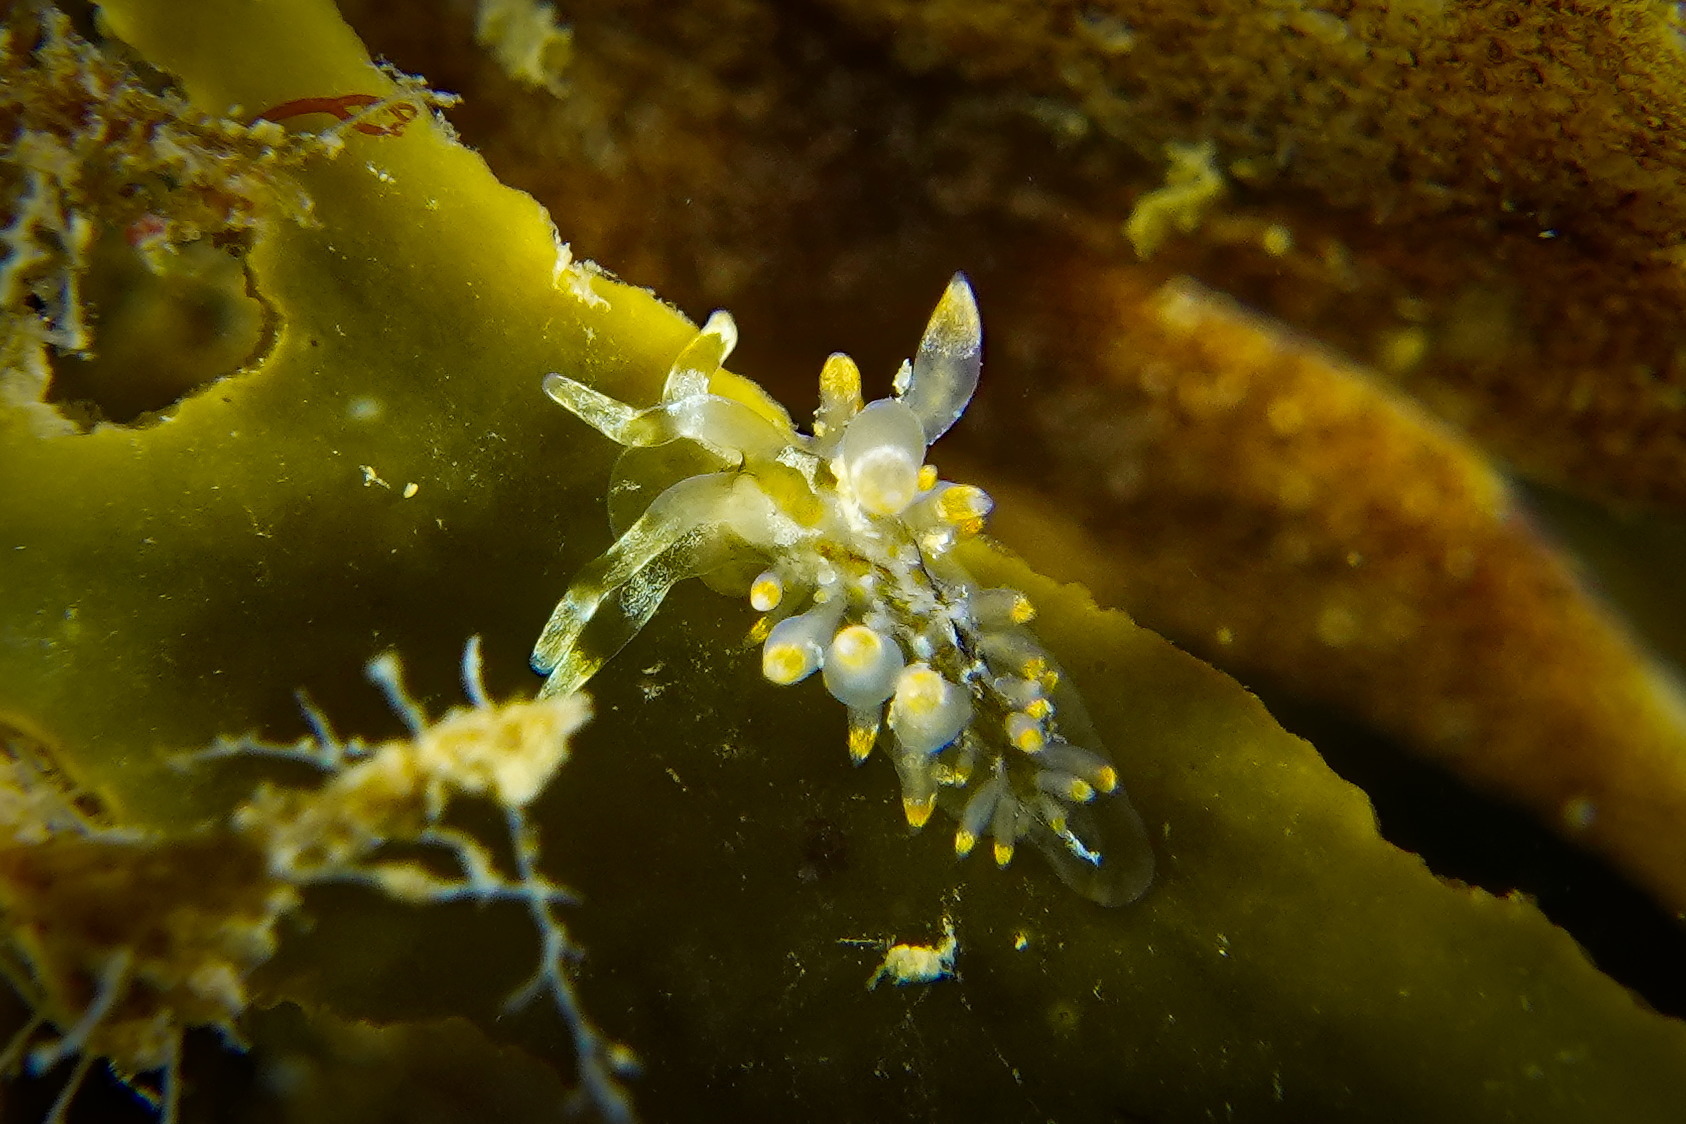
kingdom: Animalia
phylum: Mollusca
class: Gastropoda
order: Nudibranchia
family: Eubranchidae
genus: Amphorina
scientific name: Amphorina viriola
